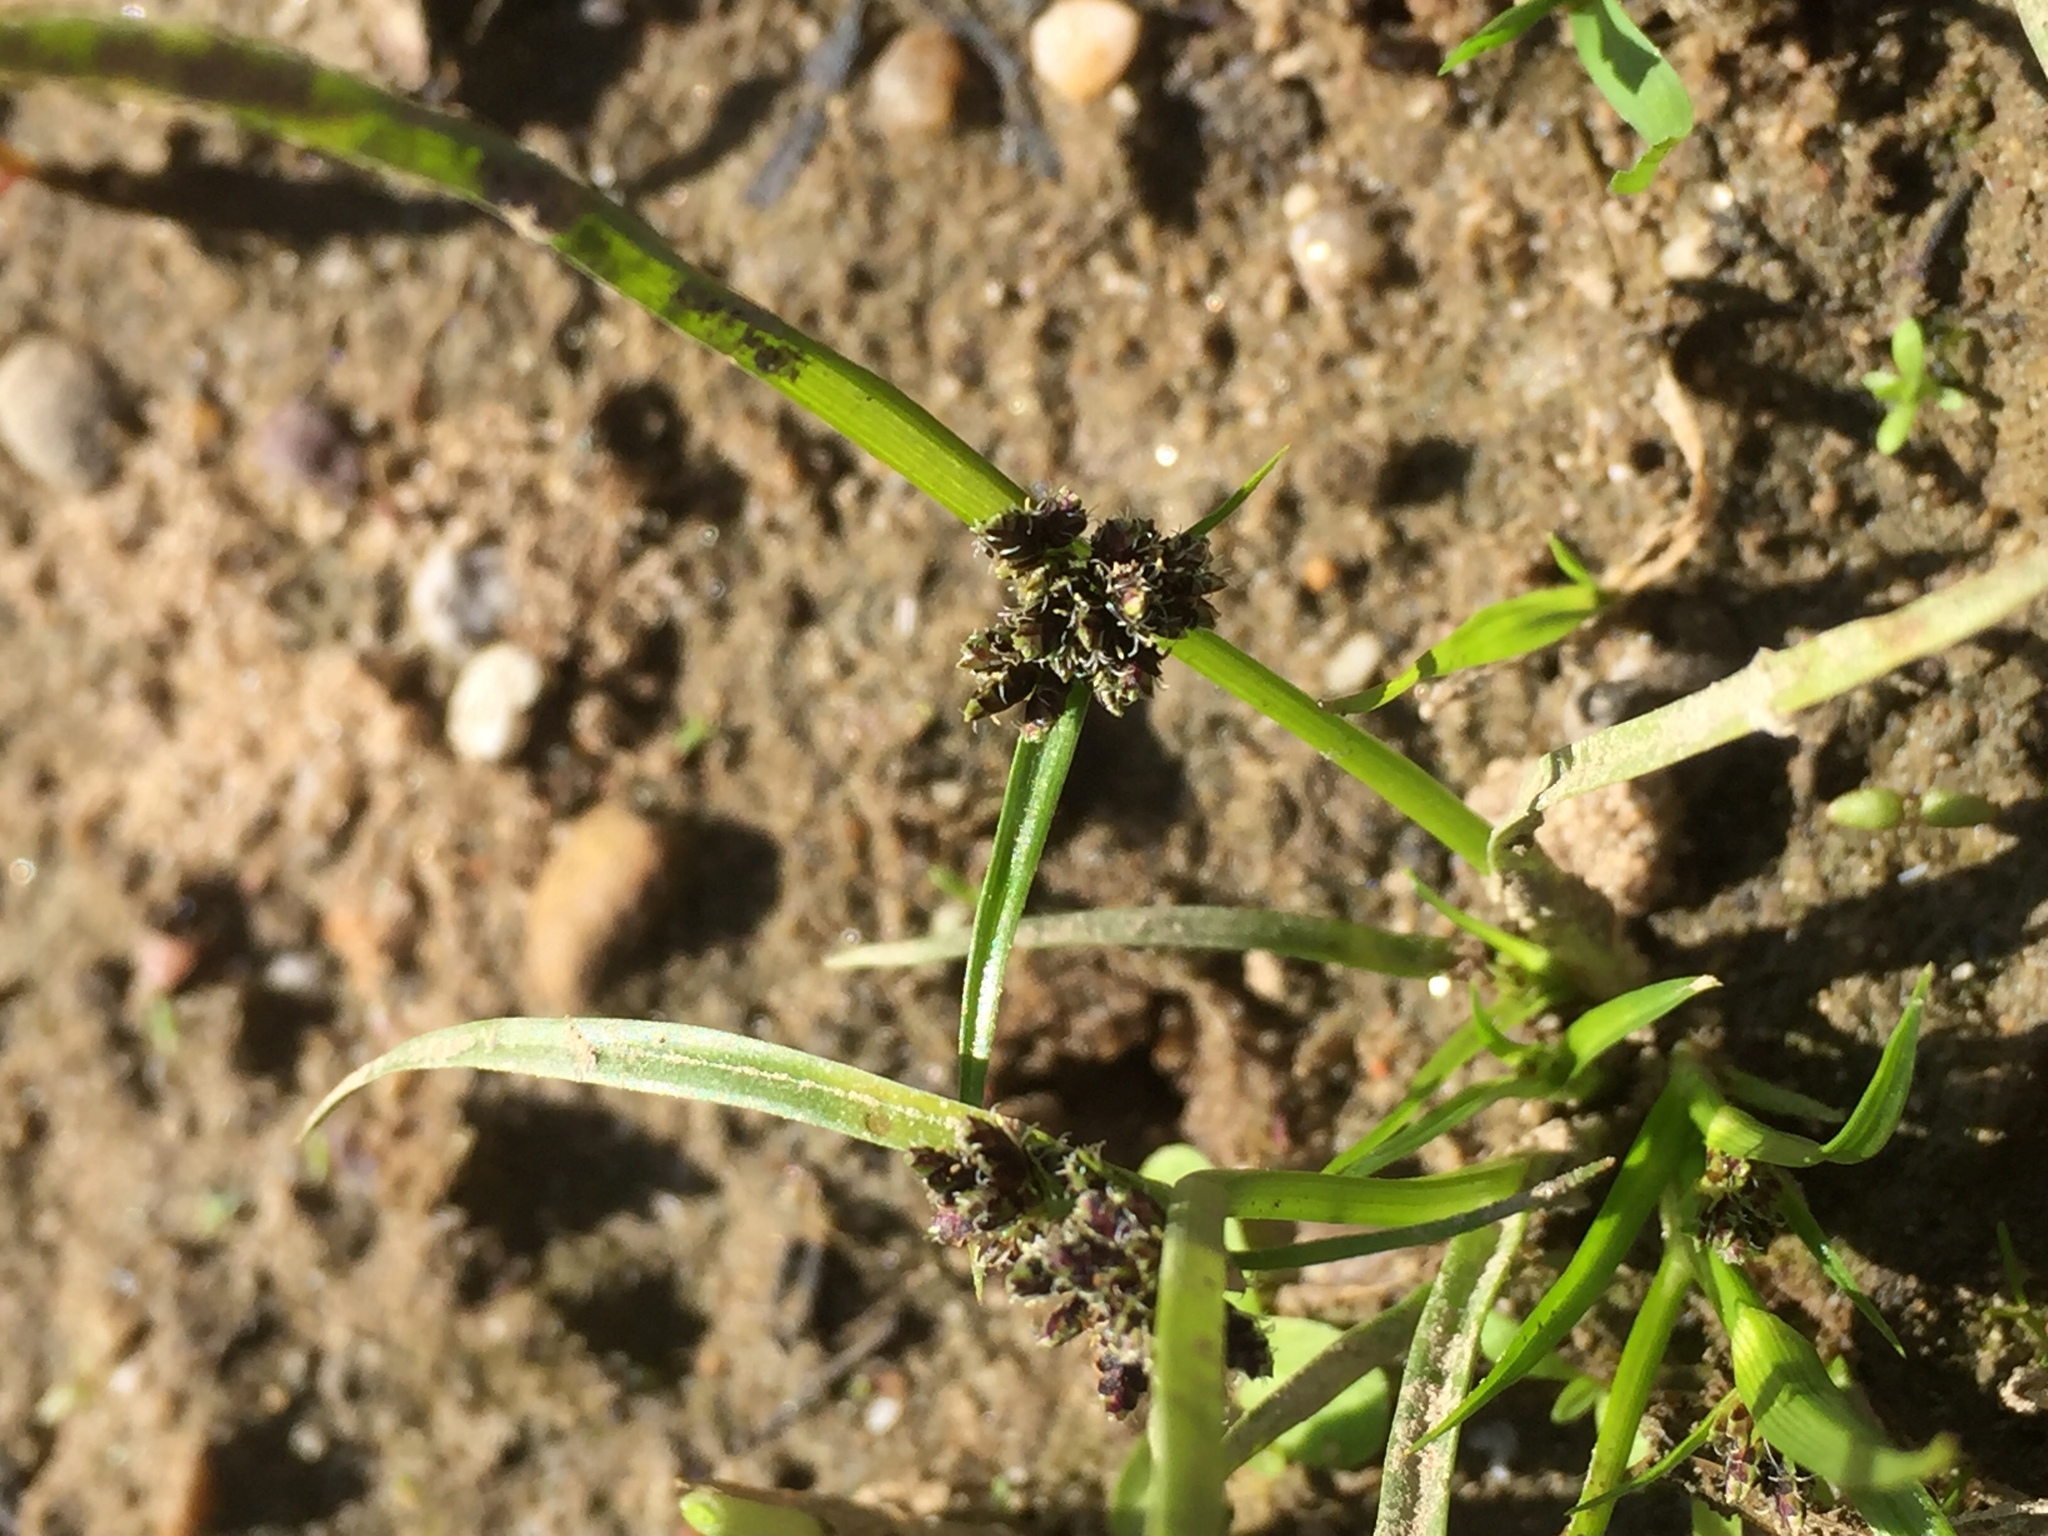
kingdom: Plantae
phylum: Tracheophyta
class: Liliopsida
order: Poales
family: Cyperaceae
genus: Cyperus
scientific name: Cyperus fuscus
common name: Brown galingale
